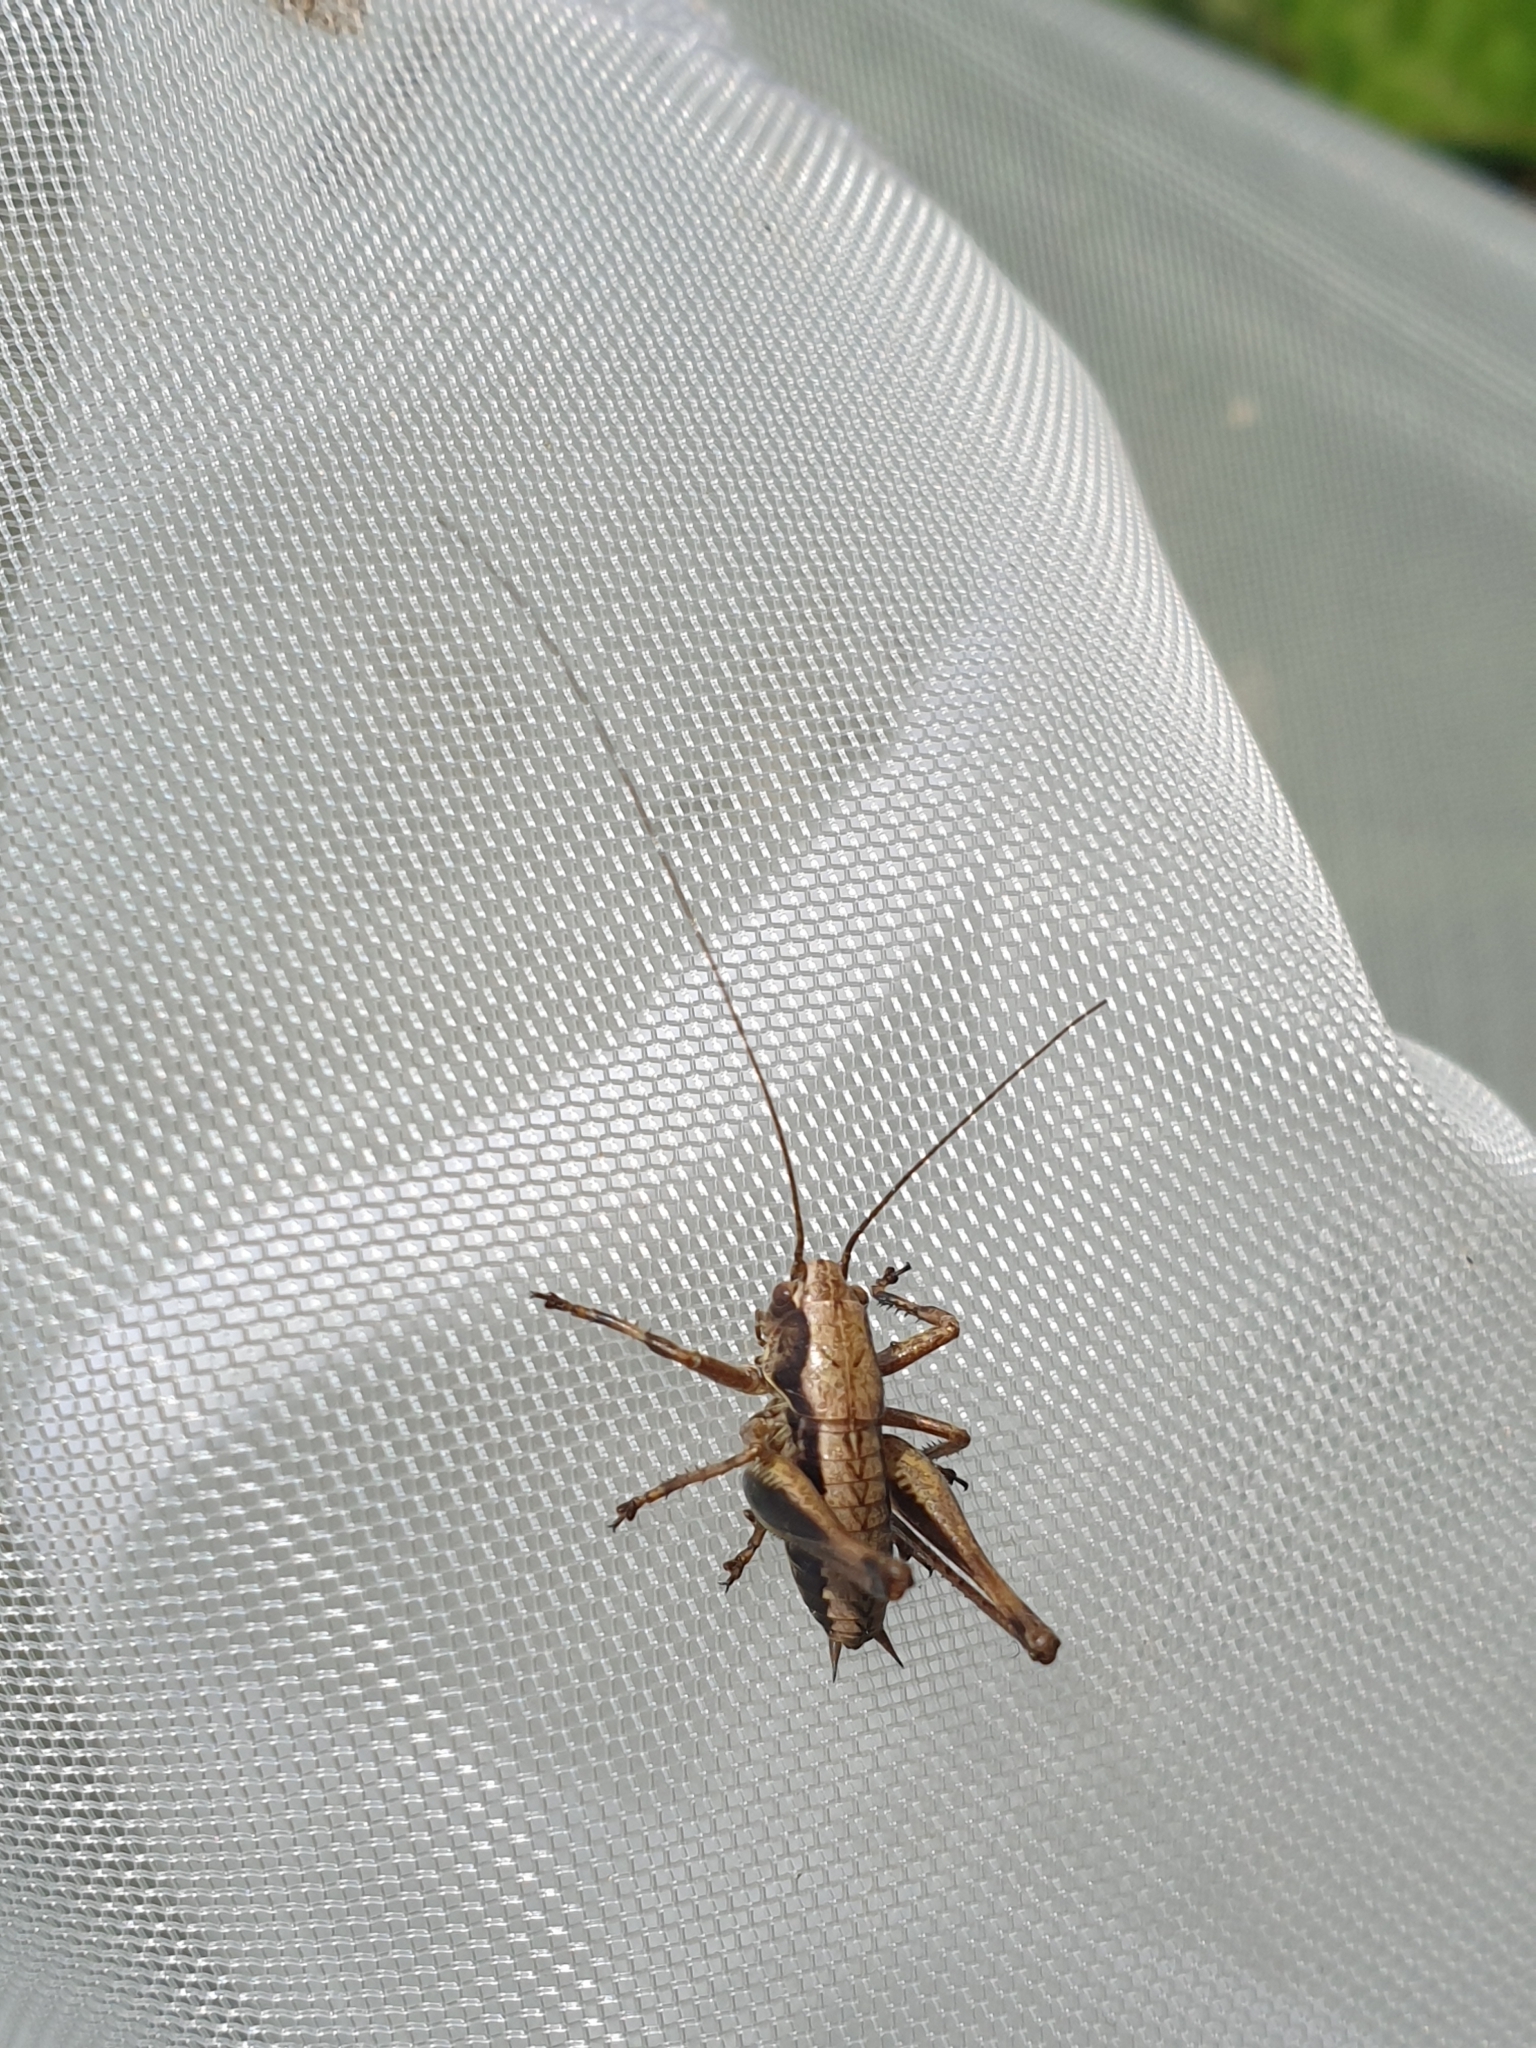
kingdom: Animalia
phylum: Arthropoda
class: Insecta
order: Orthoptera
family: Tettigoniidae
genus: Pholidoptera
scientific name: Pholidoptera griseoaptera
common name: Dark bush-cricket
